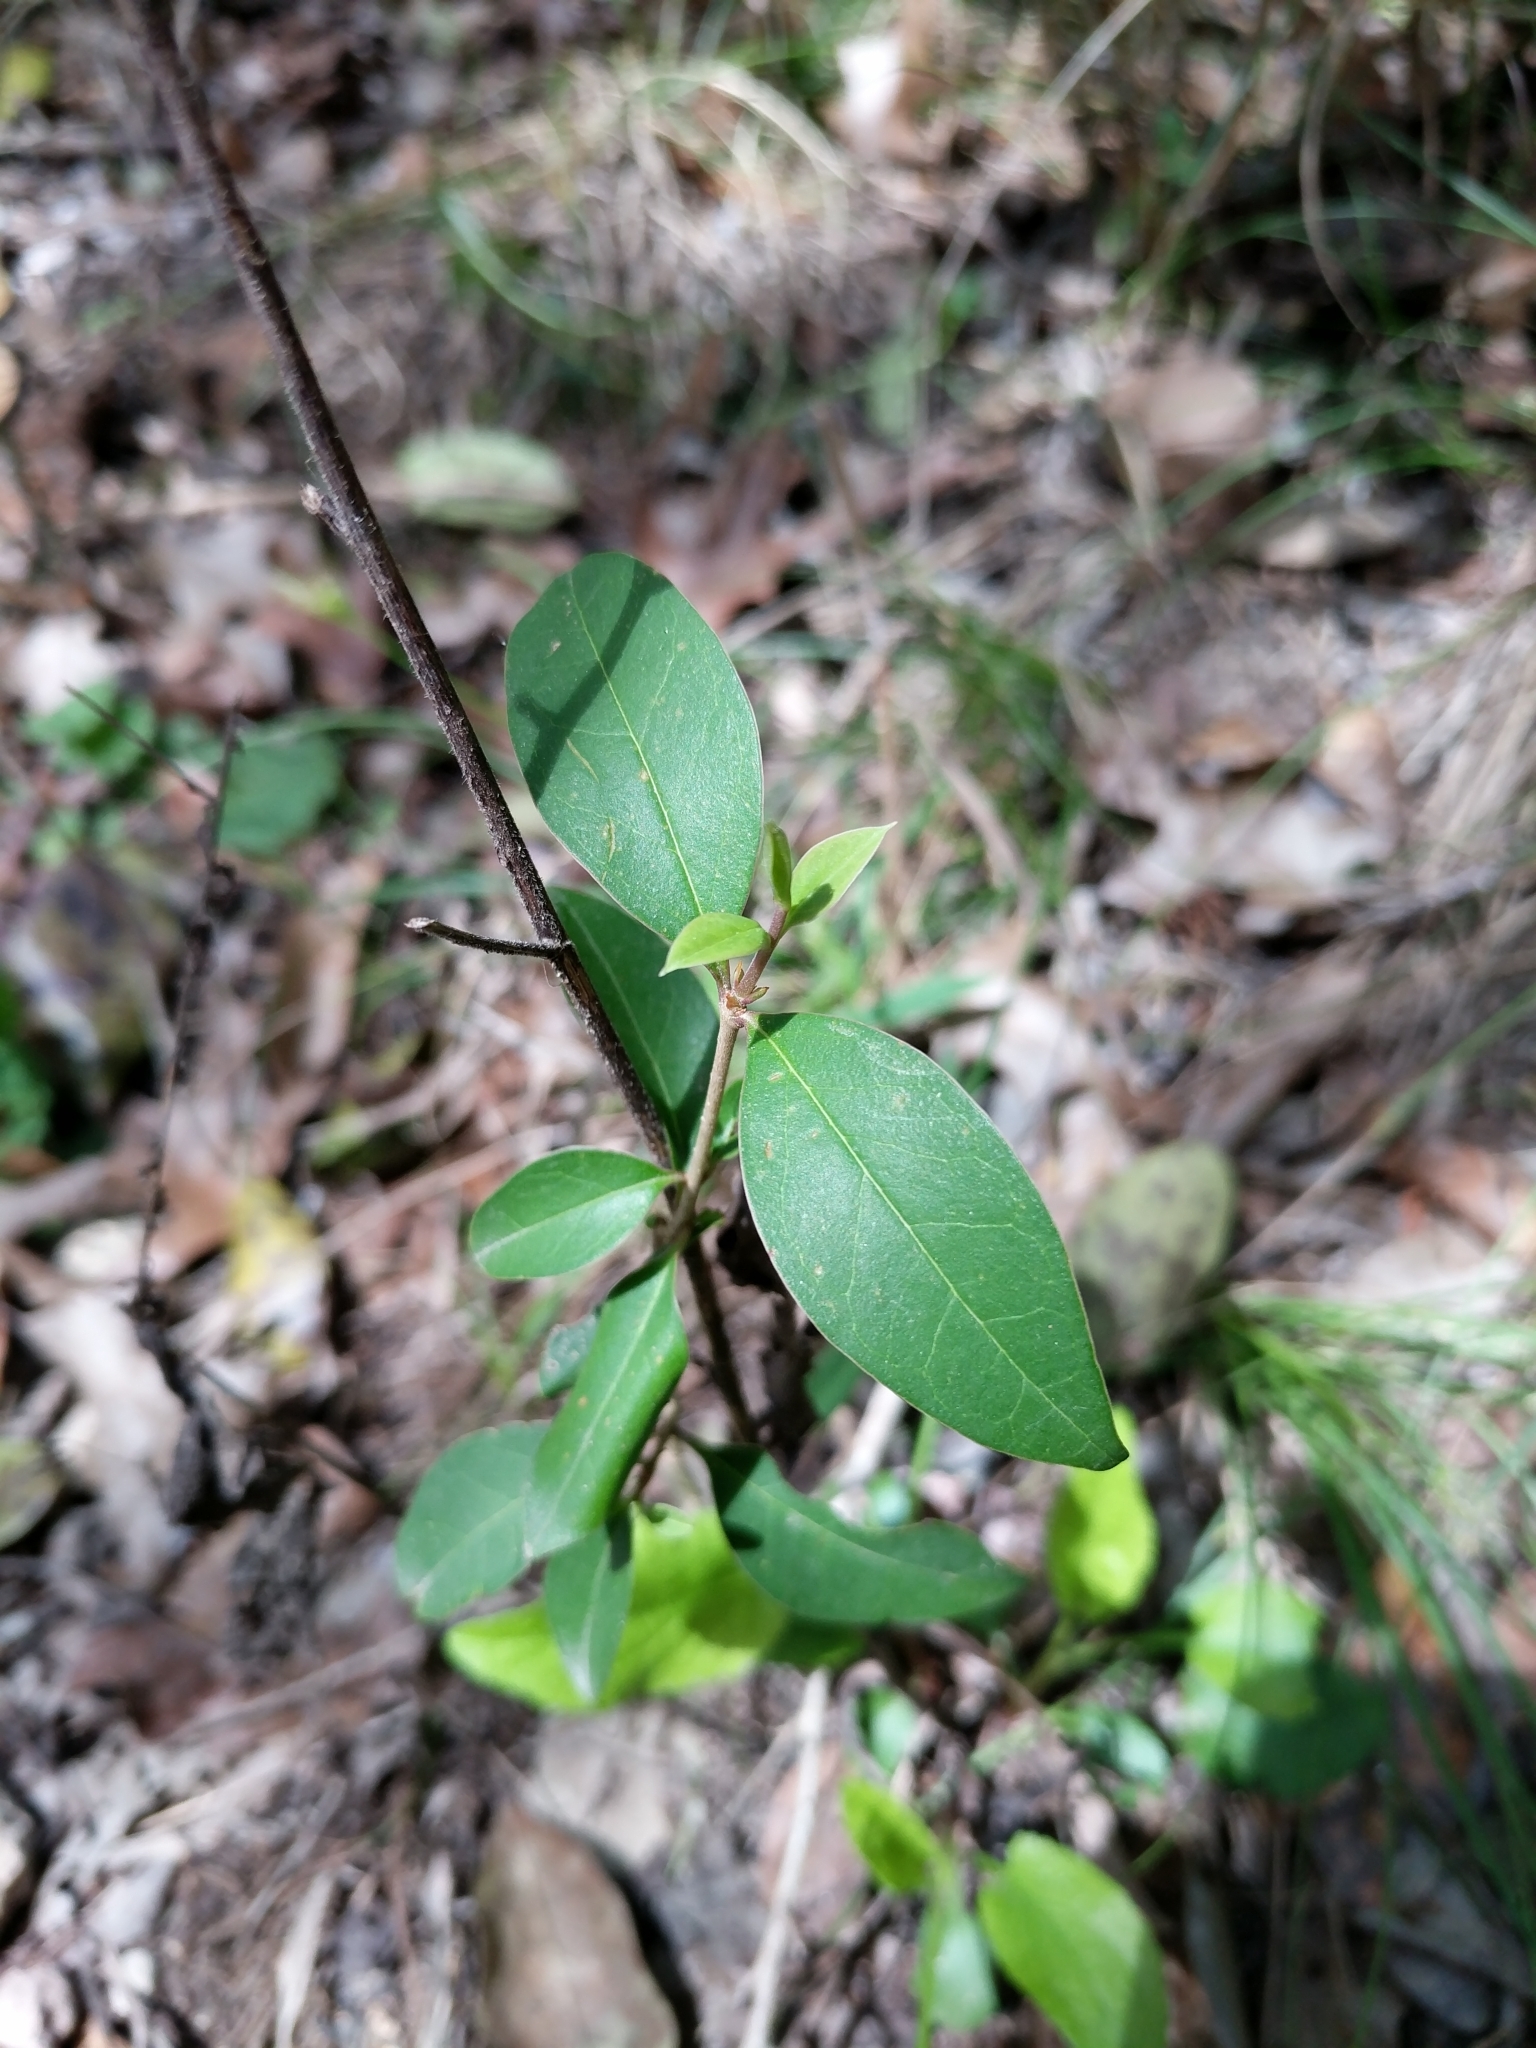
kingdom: Plantae
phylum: Tracheophyta
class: Magnoliopsida
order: Lamiales
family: Oleaceae
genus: Ligustrum
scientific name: Ligustrum lucidum
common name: Glossy privet
